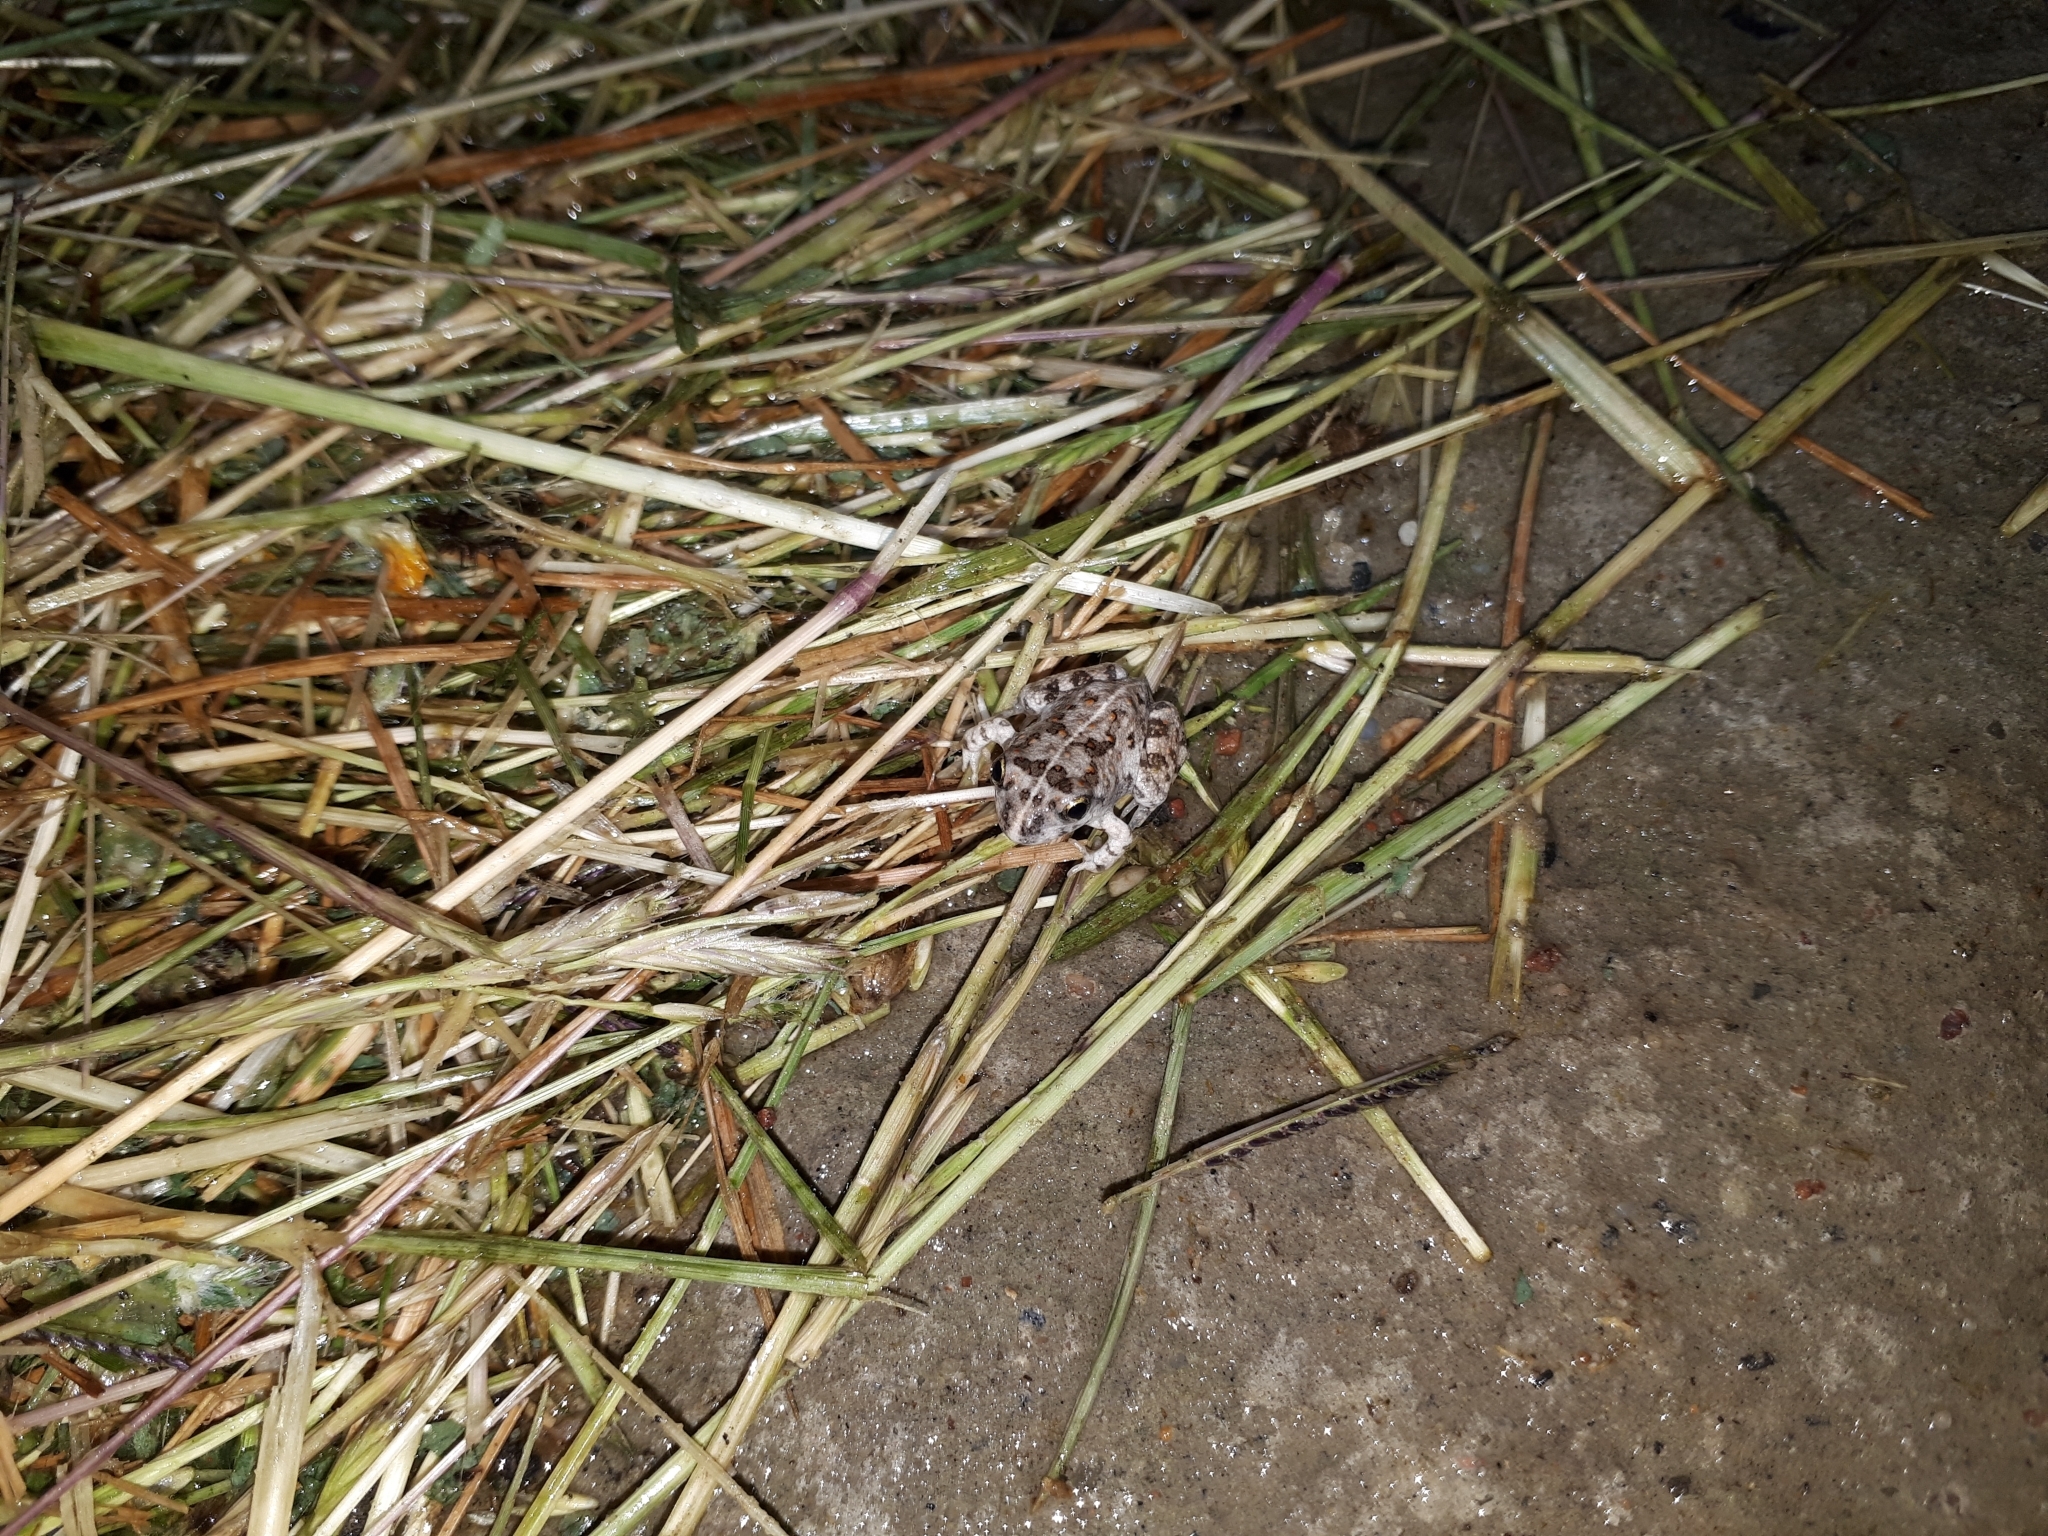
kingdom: Animalia
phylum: Chordata
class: Amphibia
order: Anura
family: Pyxicephalidae
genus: Tomopterna
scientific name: Tomopterna delalandii
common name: Delalande's burrowing bullfrog
